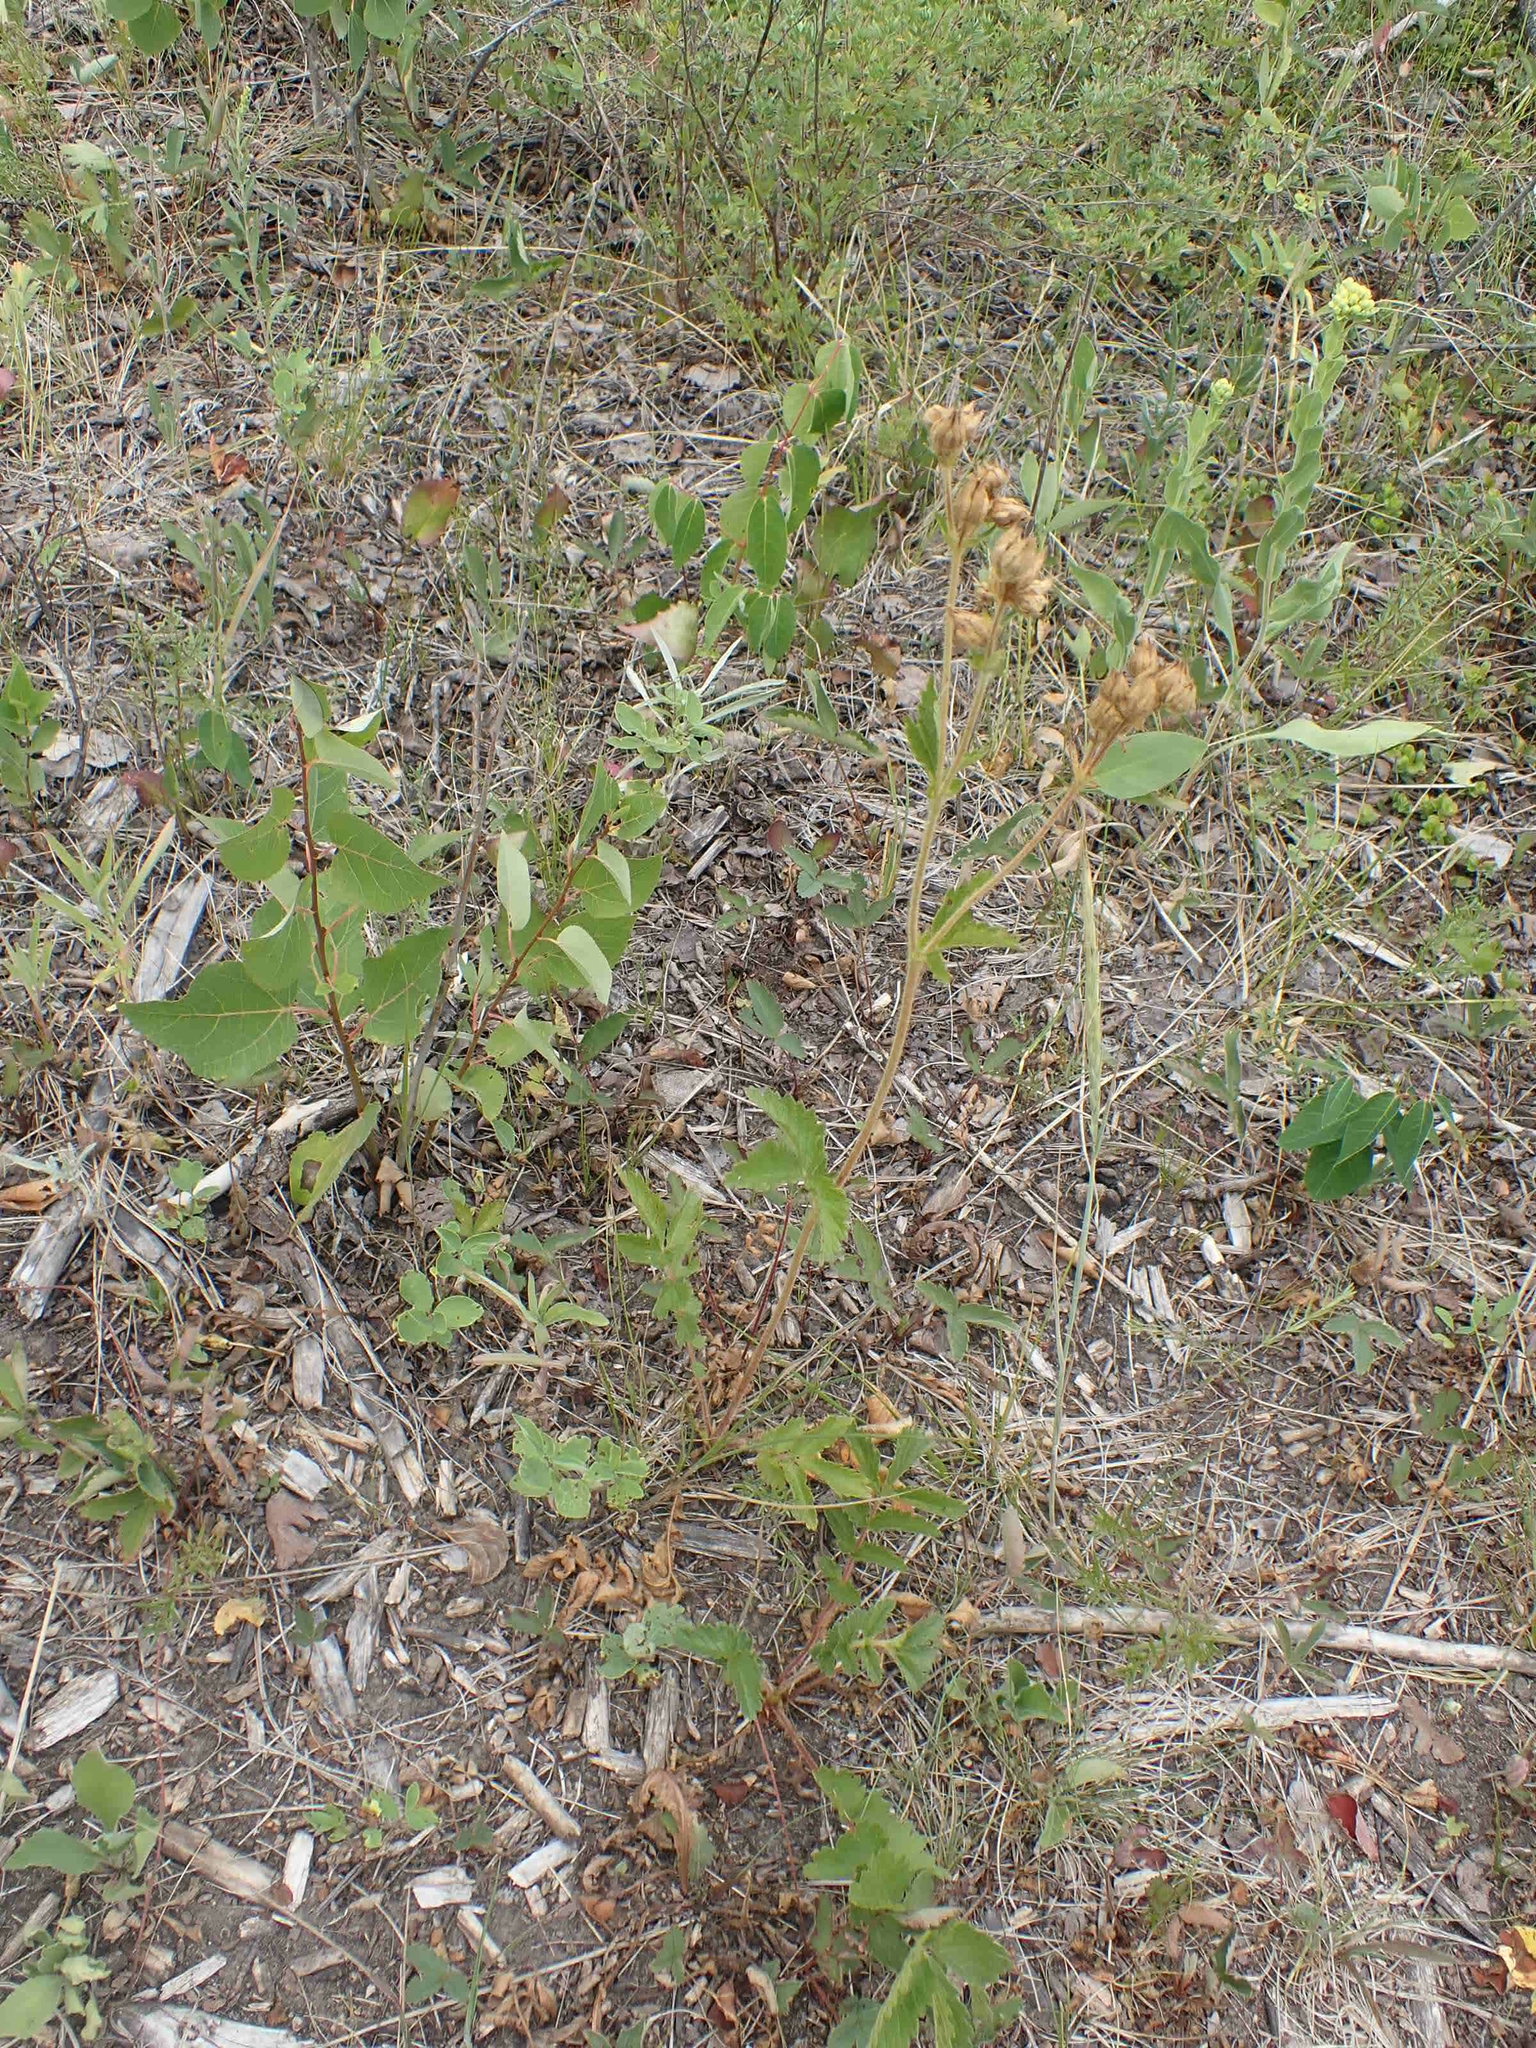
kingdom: Plantae
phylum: Tracheophyta
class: Magnoliopsida
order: Rosales
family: Rosaceae
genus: Drymocallis
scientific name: Drymocallis arguta
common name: Tall cinquefoil
